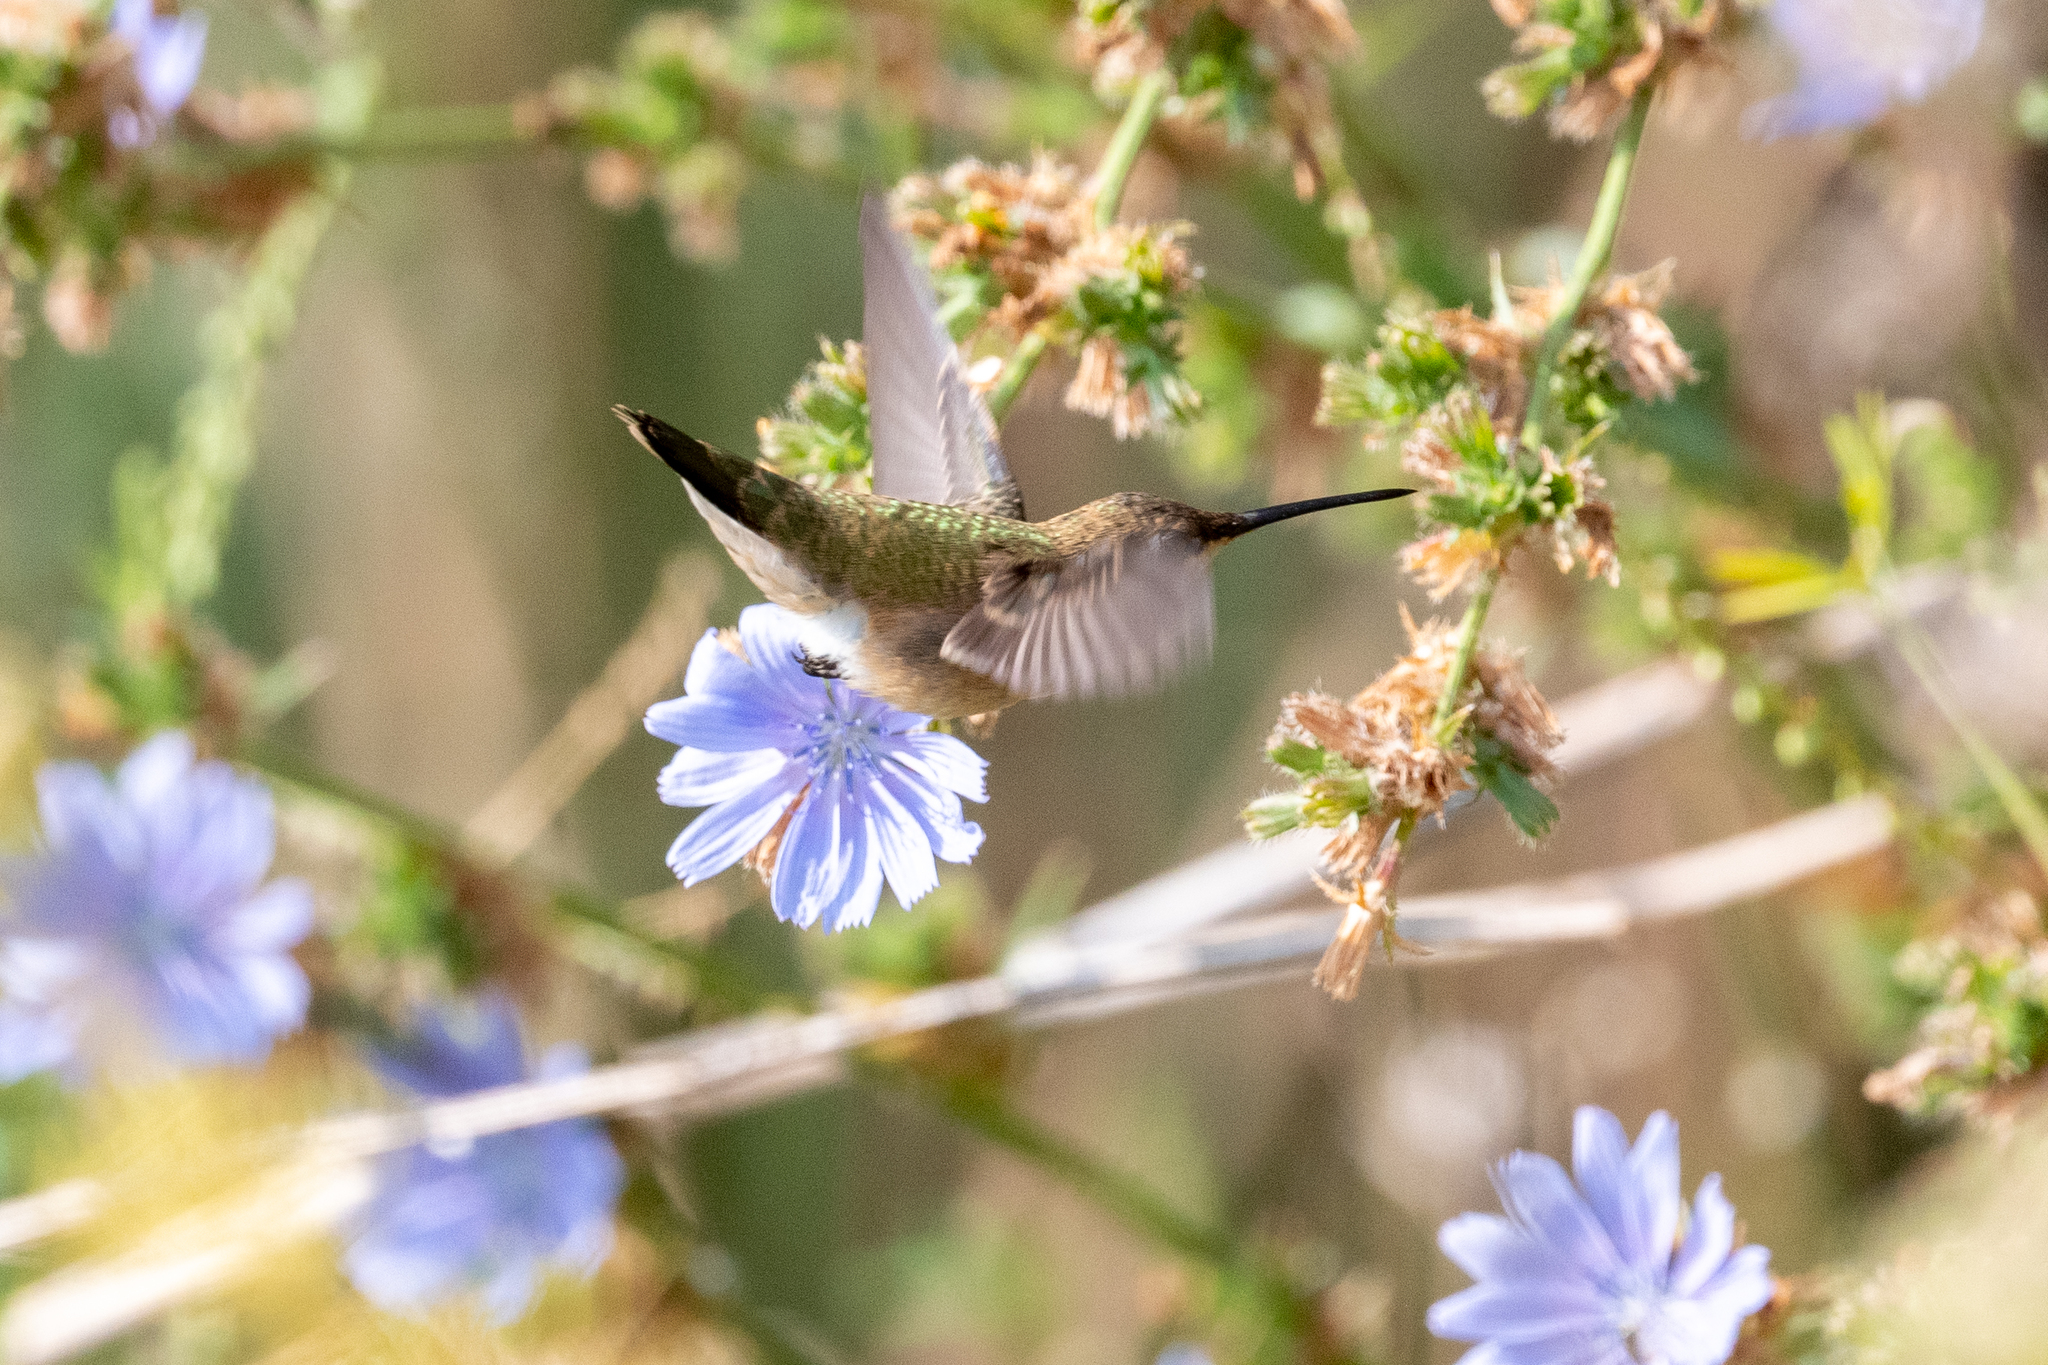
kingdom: Animalia
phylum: Chordata
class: Aves
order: Apodiformes
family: Trochilidae
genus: Archilochus
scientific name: Archilochus alexandri
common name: Black-chinned hummingbird
